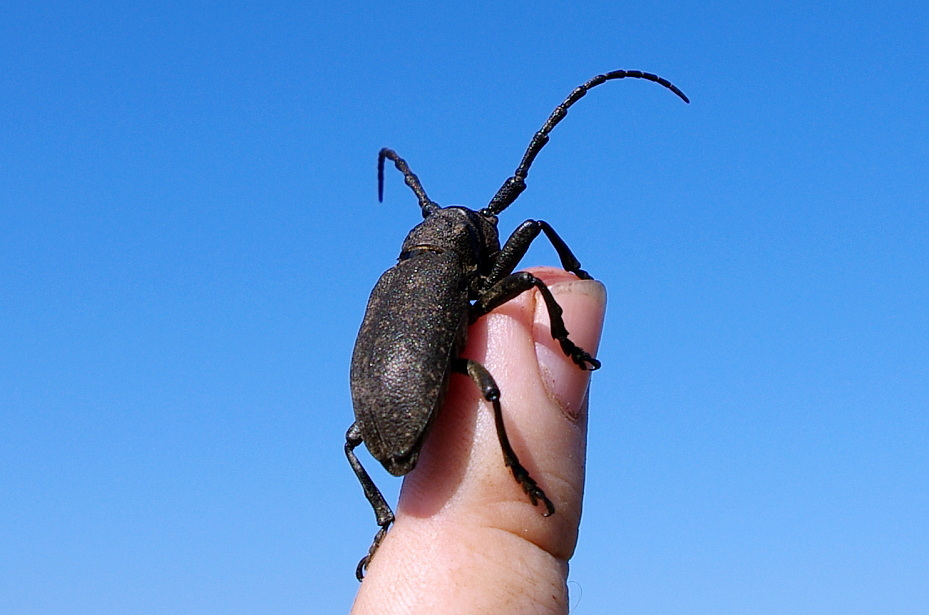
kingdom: Animalia
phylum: Arthropoda
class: Insecta
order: Coleoptera
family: Cerambycidae
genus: Lamia
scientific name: Lamia textor
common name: Weaver beetle
